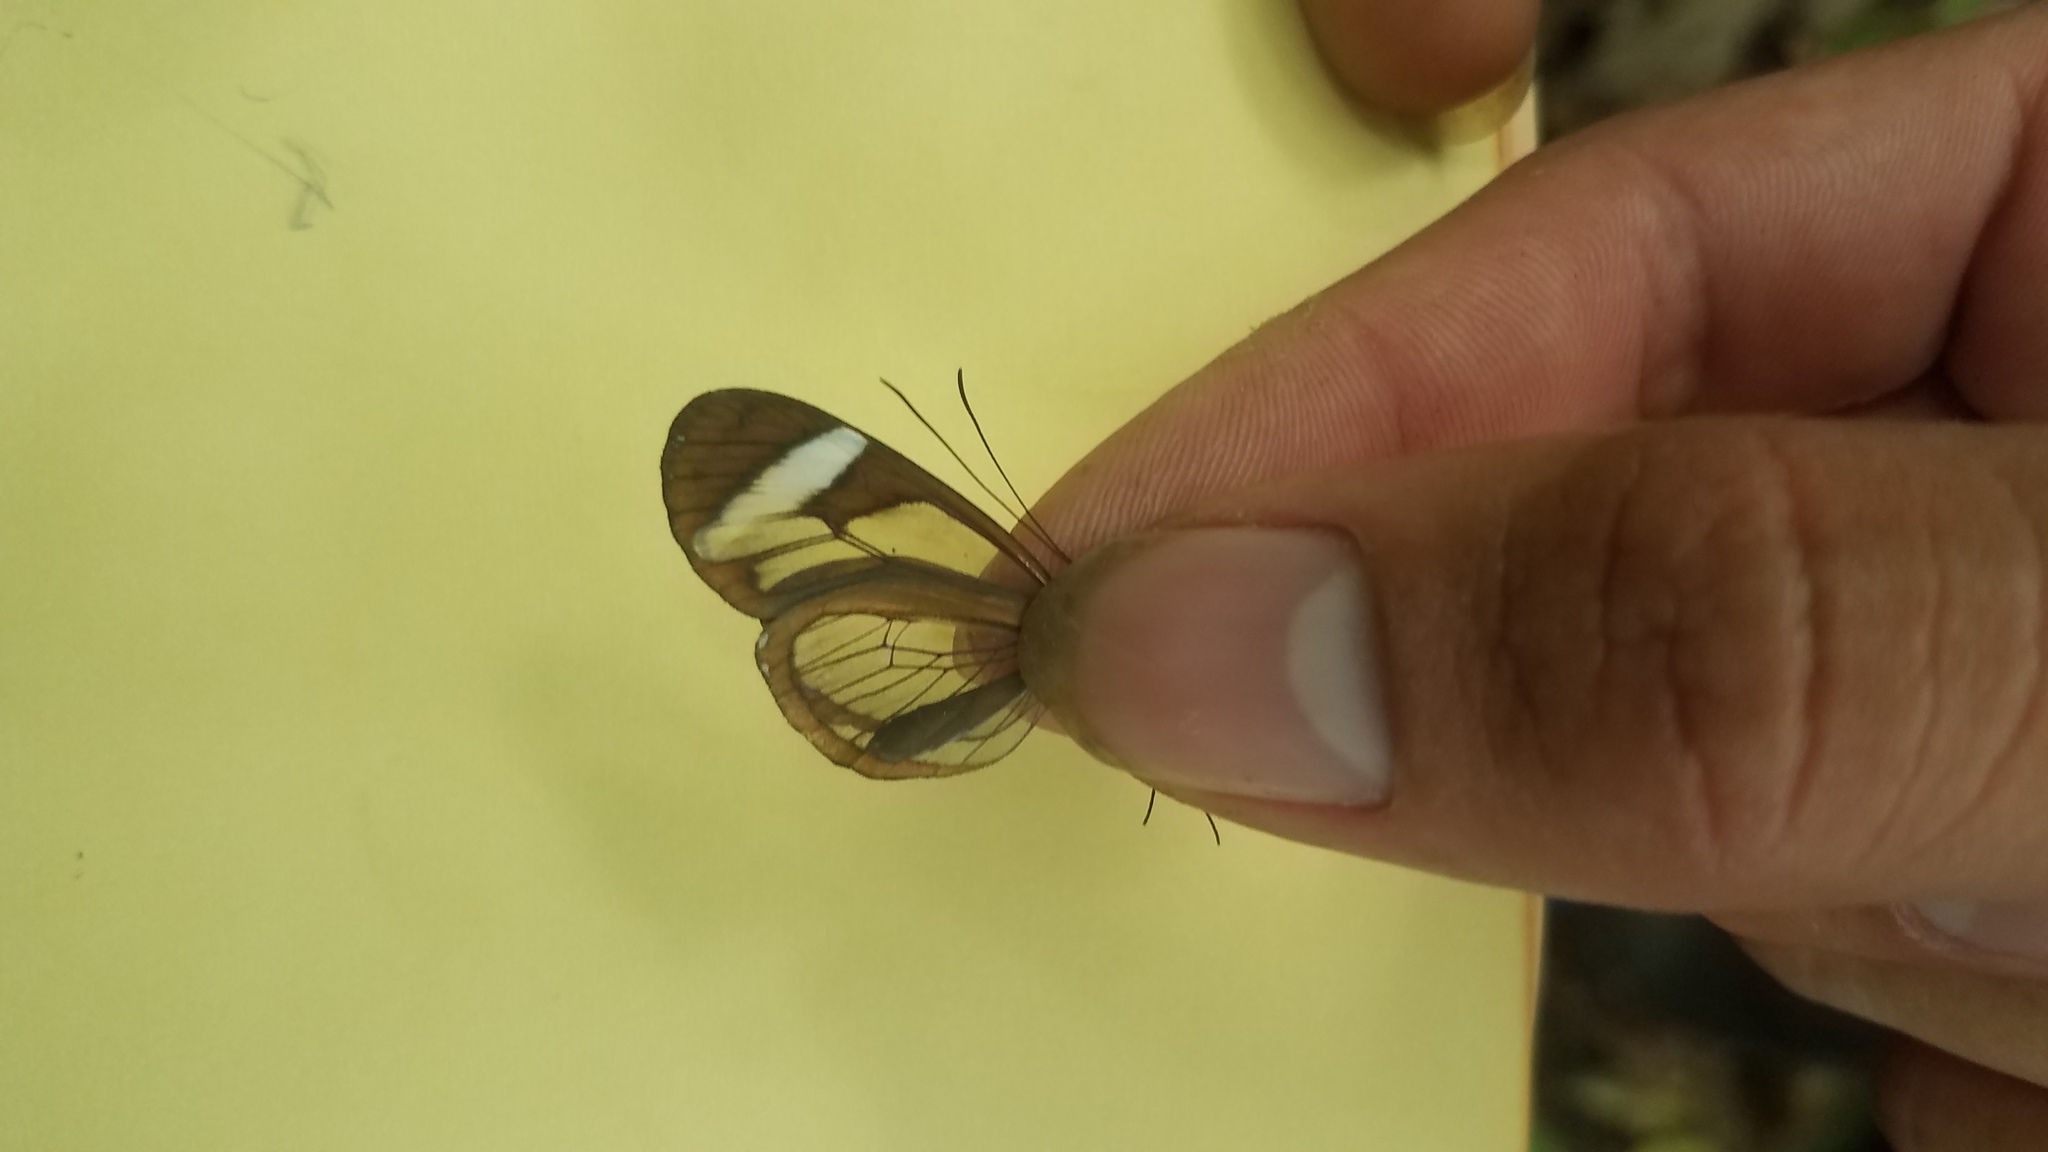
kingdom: Animalia
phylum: Arthropoda
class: Insecta
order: Lepidoptera
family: Nymphalidae
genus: Oleria
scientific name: Oleria paula
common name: Paula's clearwing
